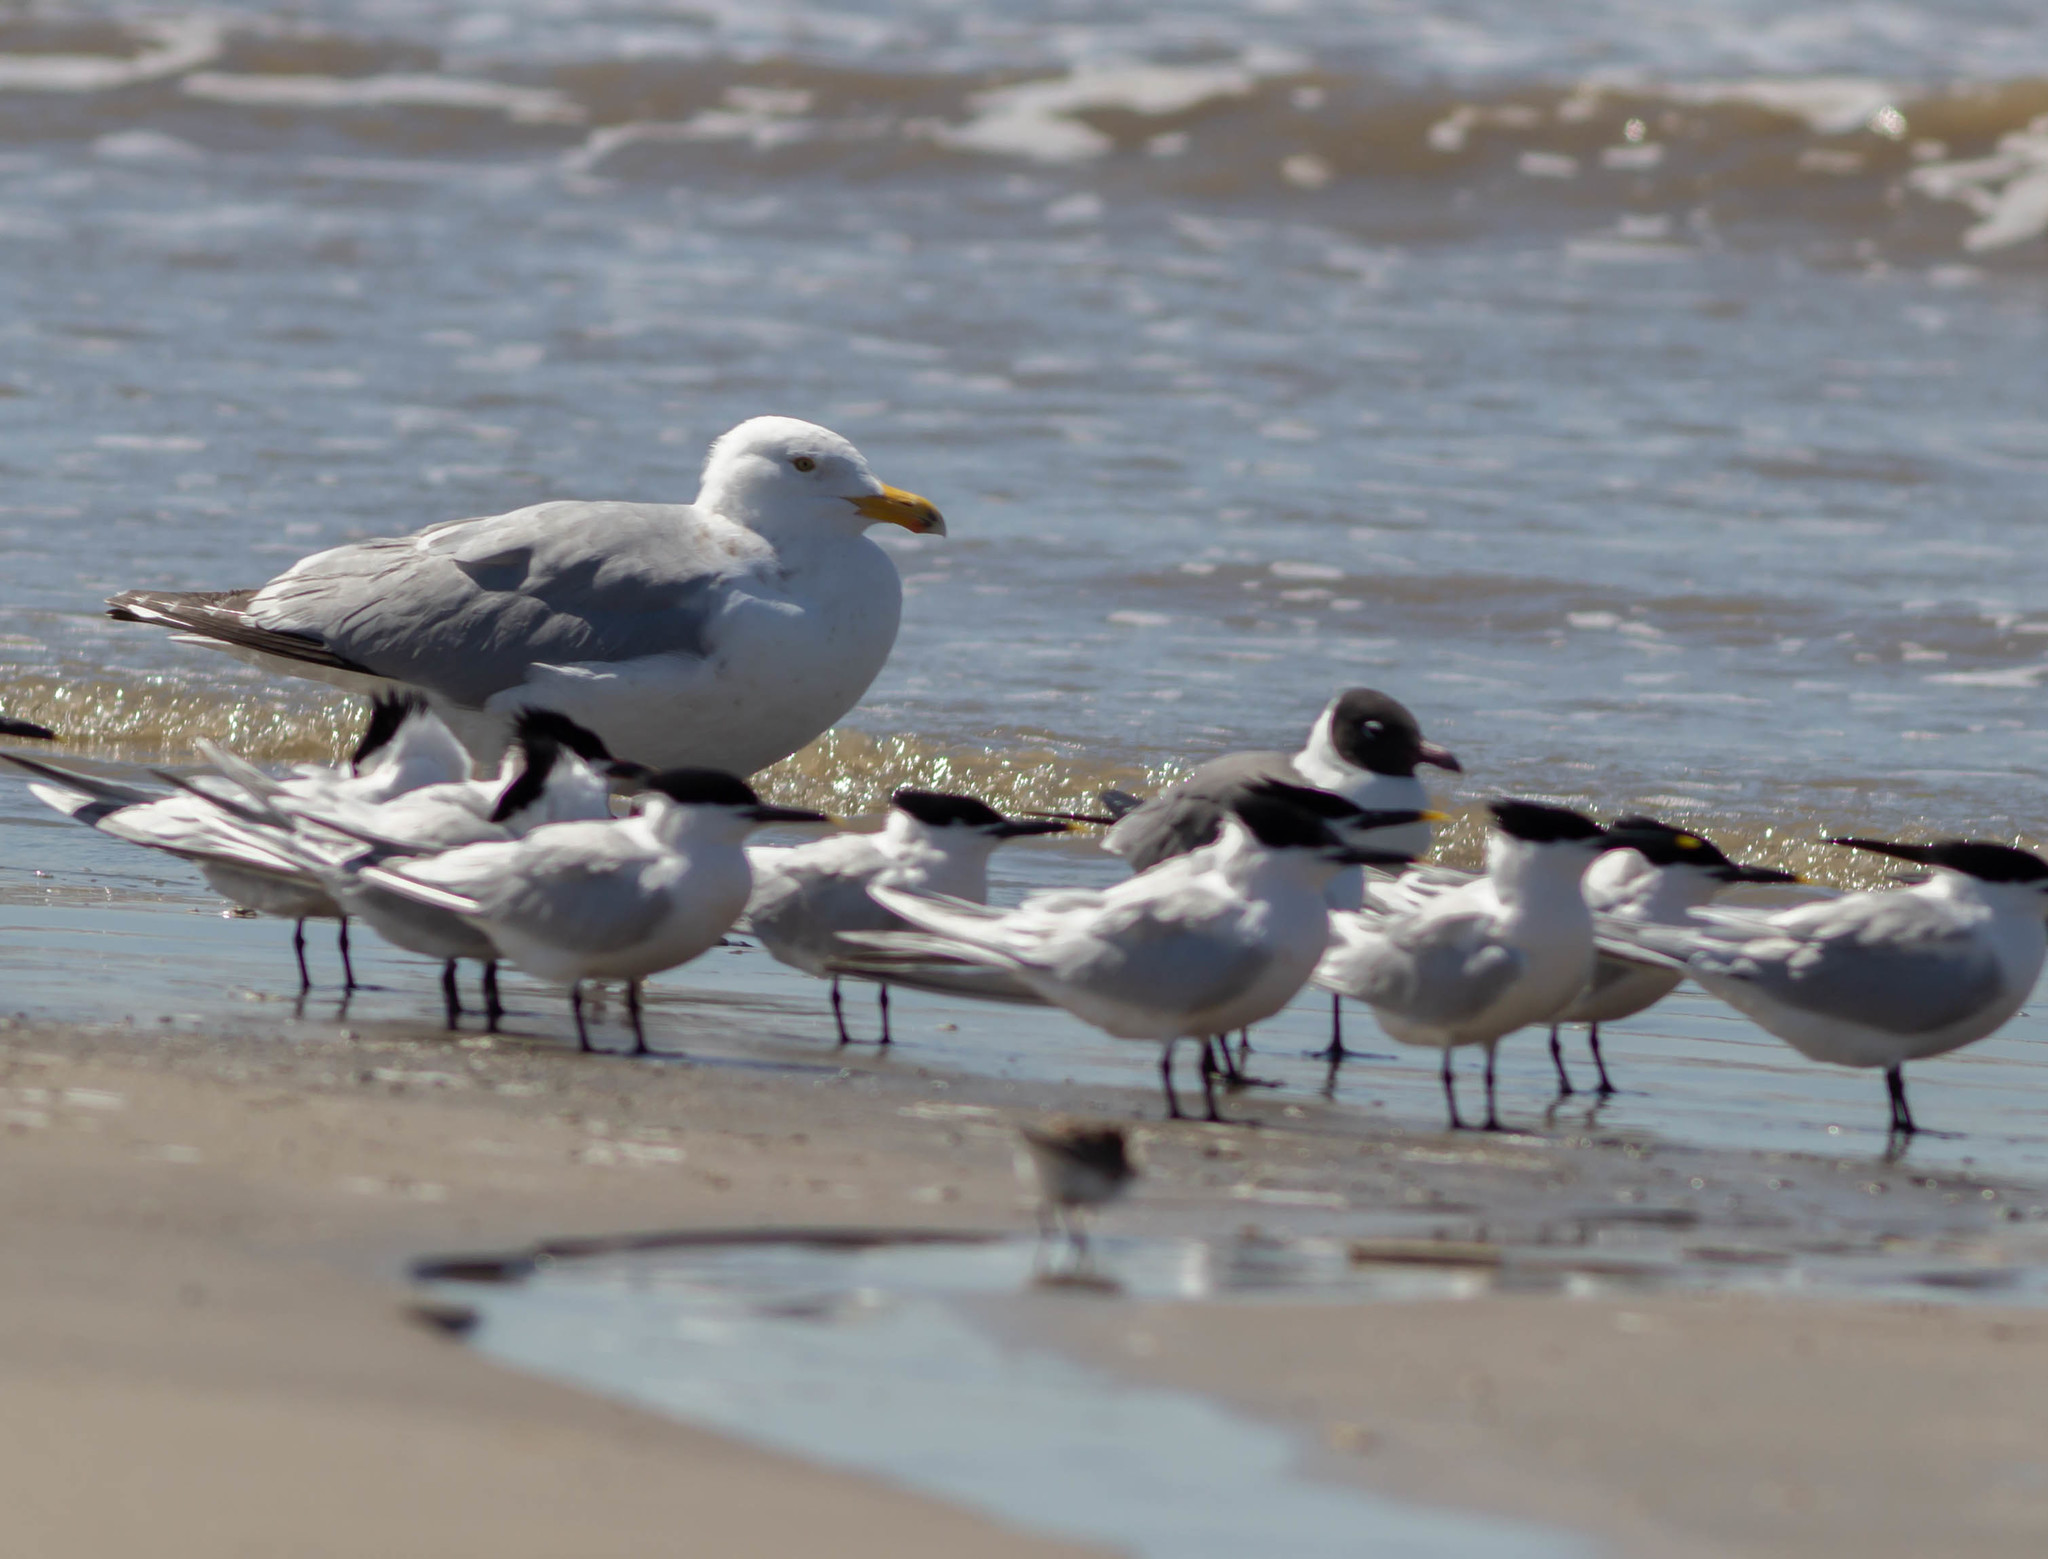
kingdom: Animalia
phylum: Chordata
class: Aves
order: Charadriiformes
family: Laridae
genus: Thalasseus
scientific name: Thalasseus sandvicensis
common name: Sandwich tern
